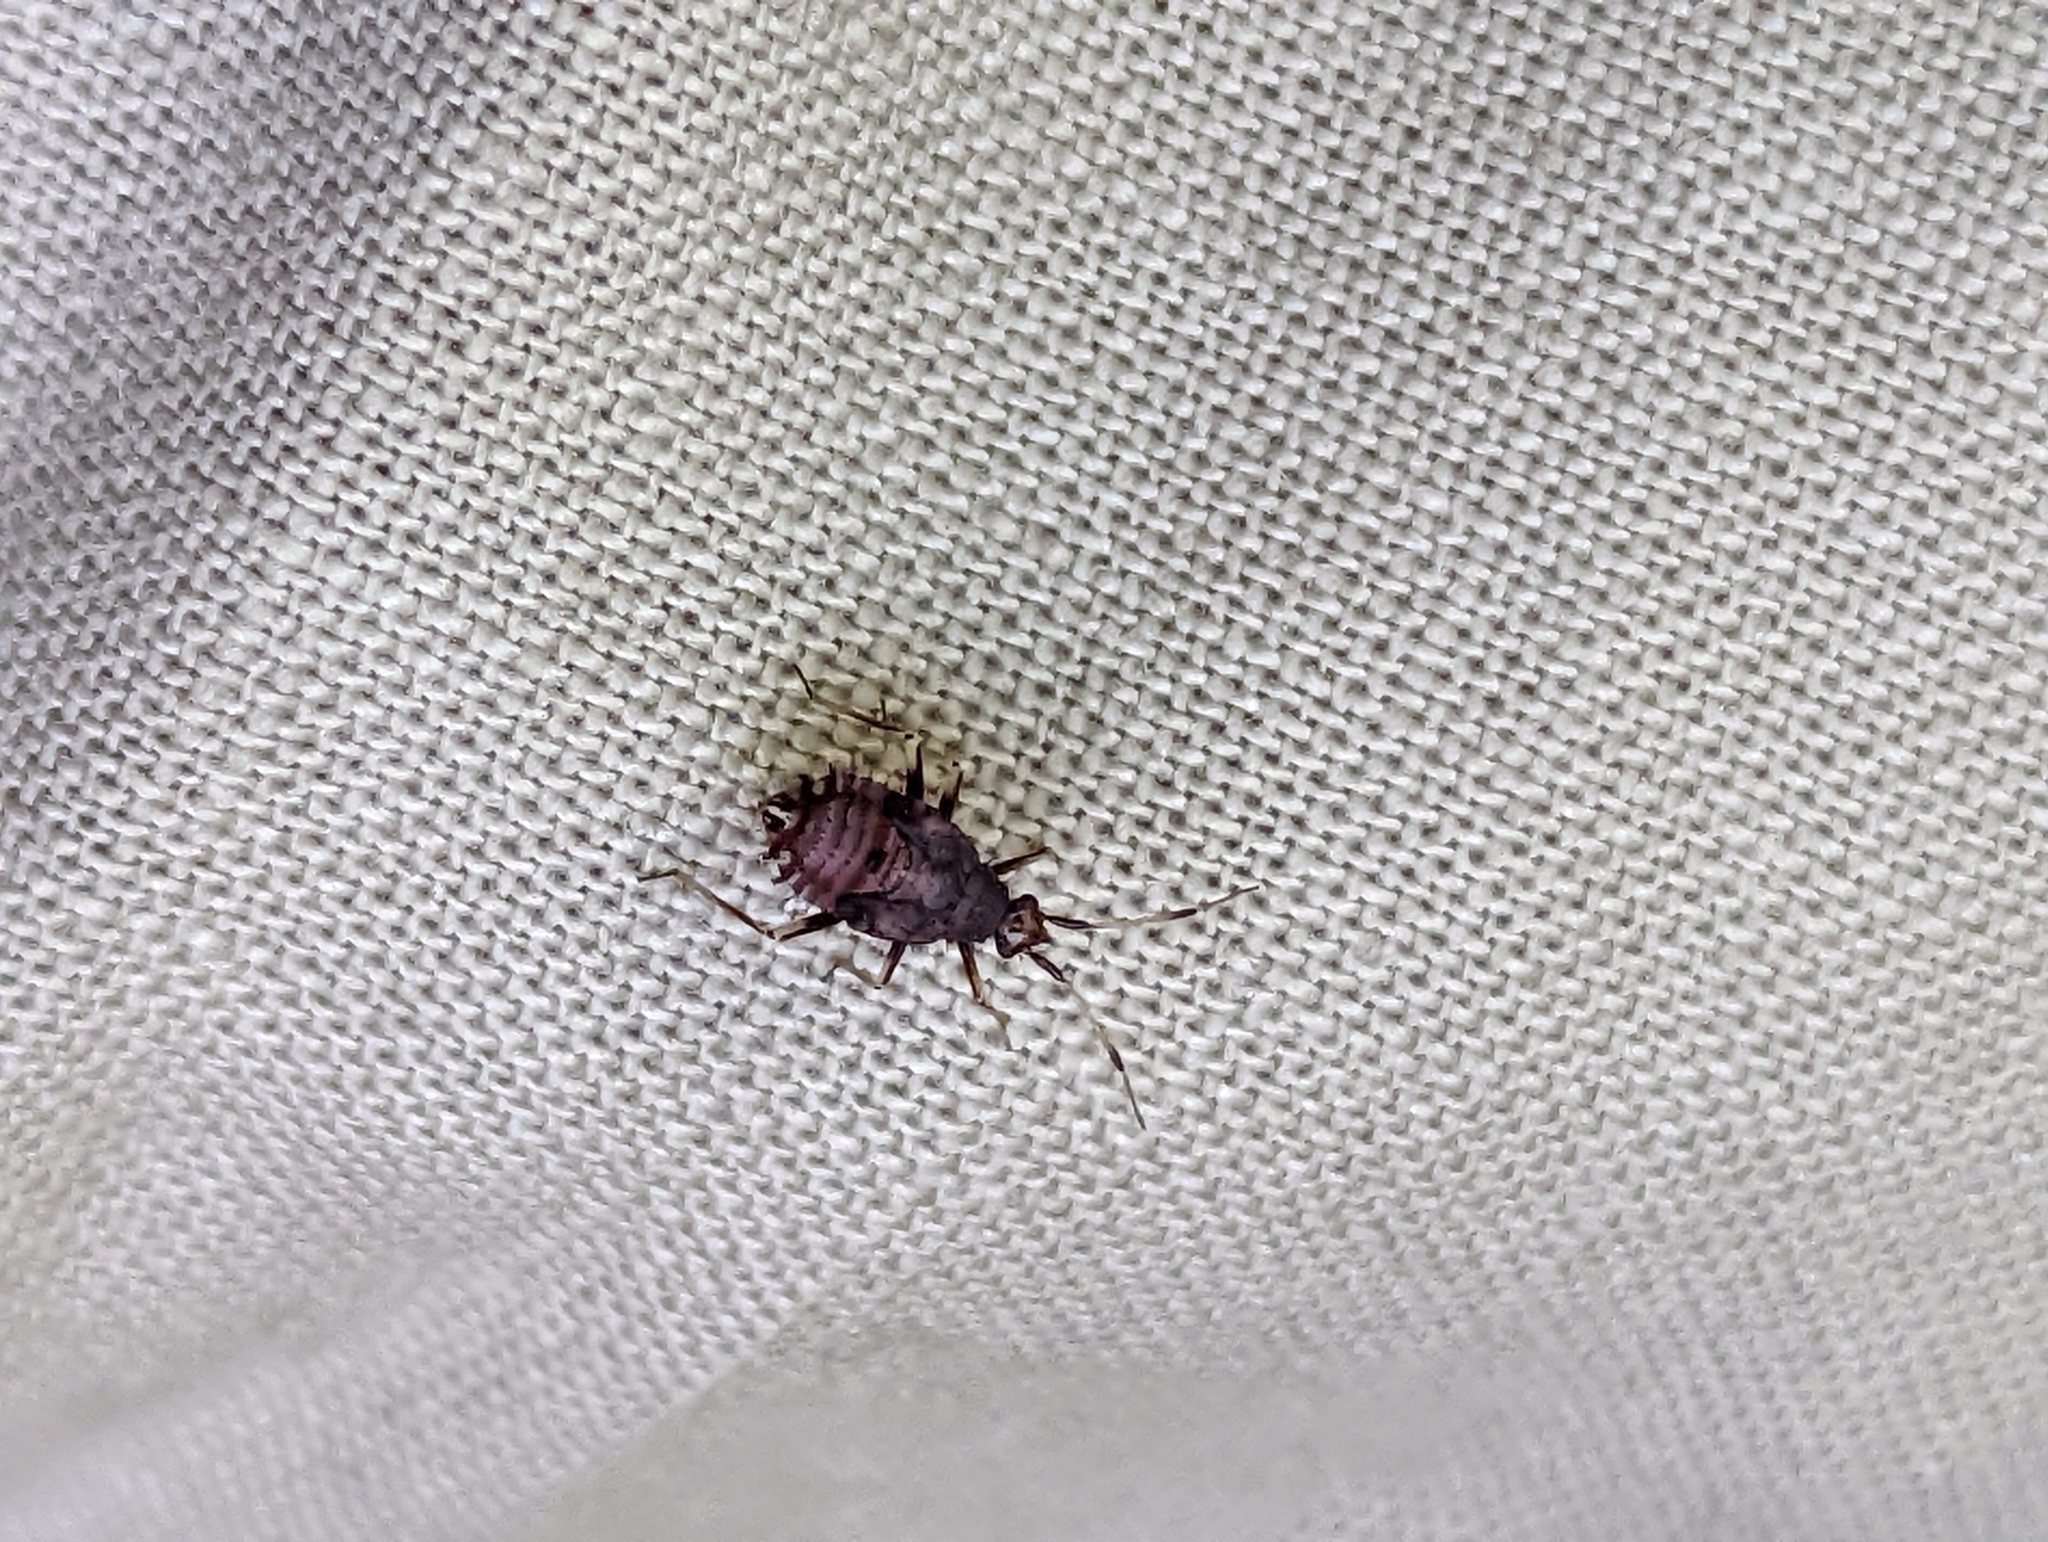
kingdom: Animalia
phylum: Arthropoda
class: Insecta
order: Hemiptera
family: Miridae
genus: Deraeocoris
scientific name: Deraeocoris ruber
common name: Plant bug
